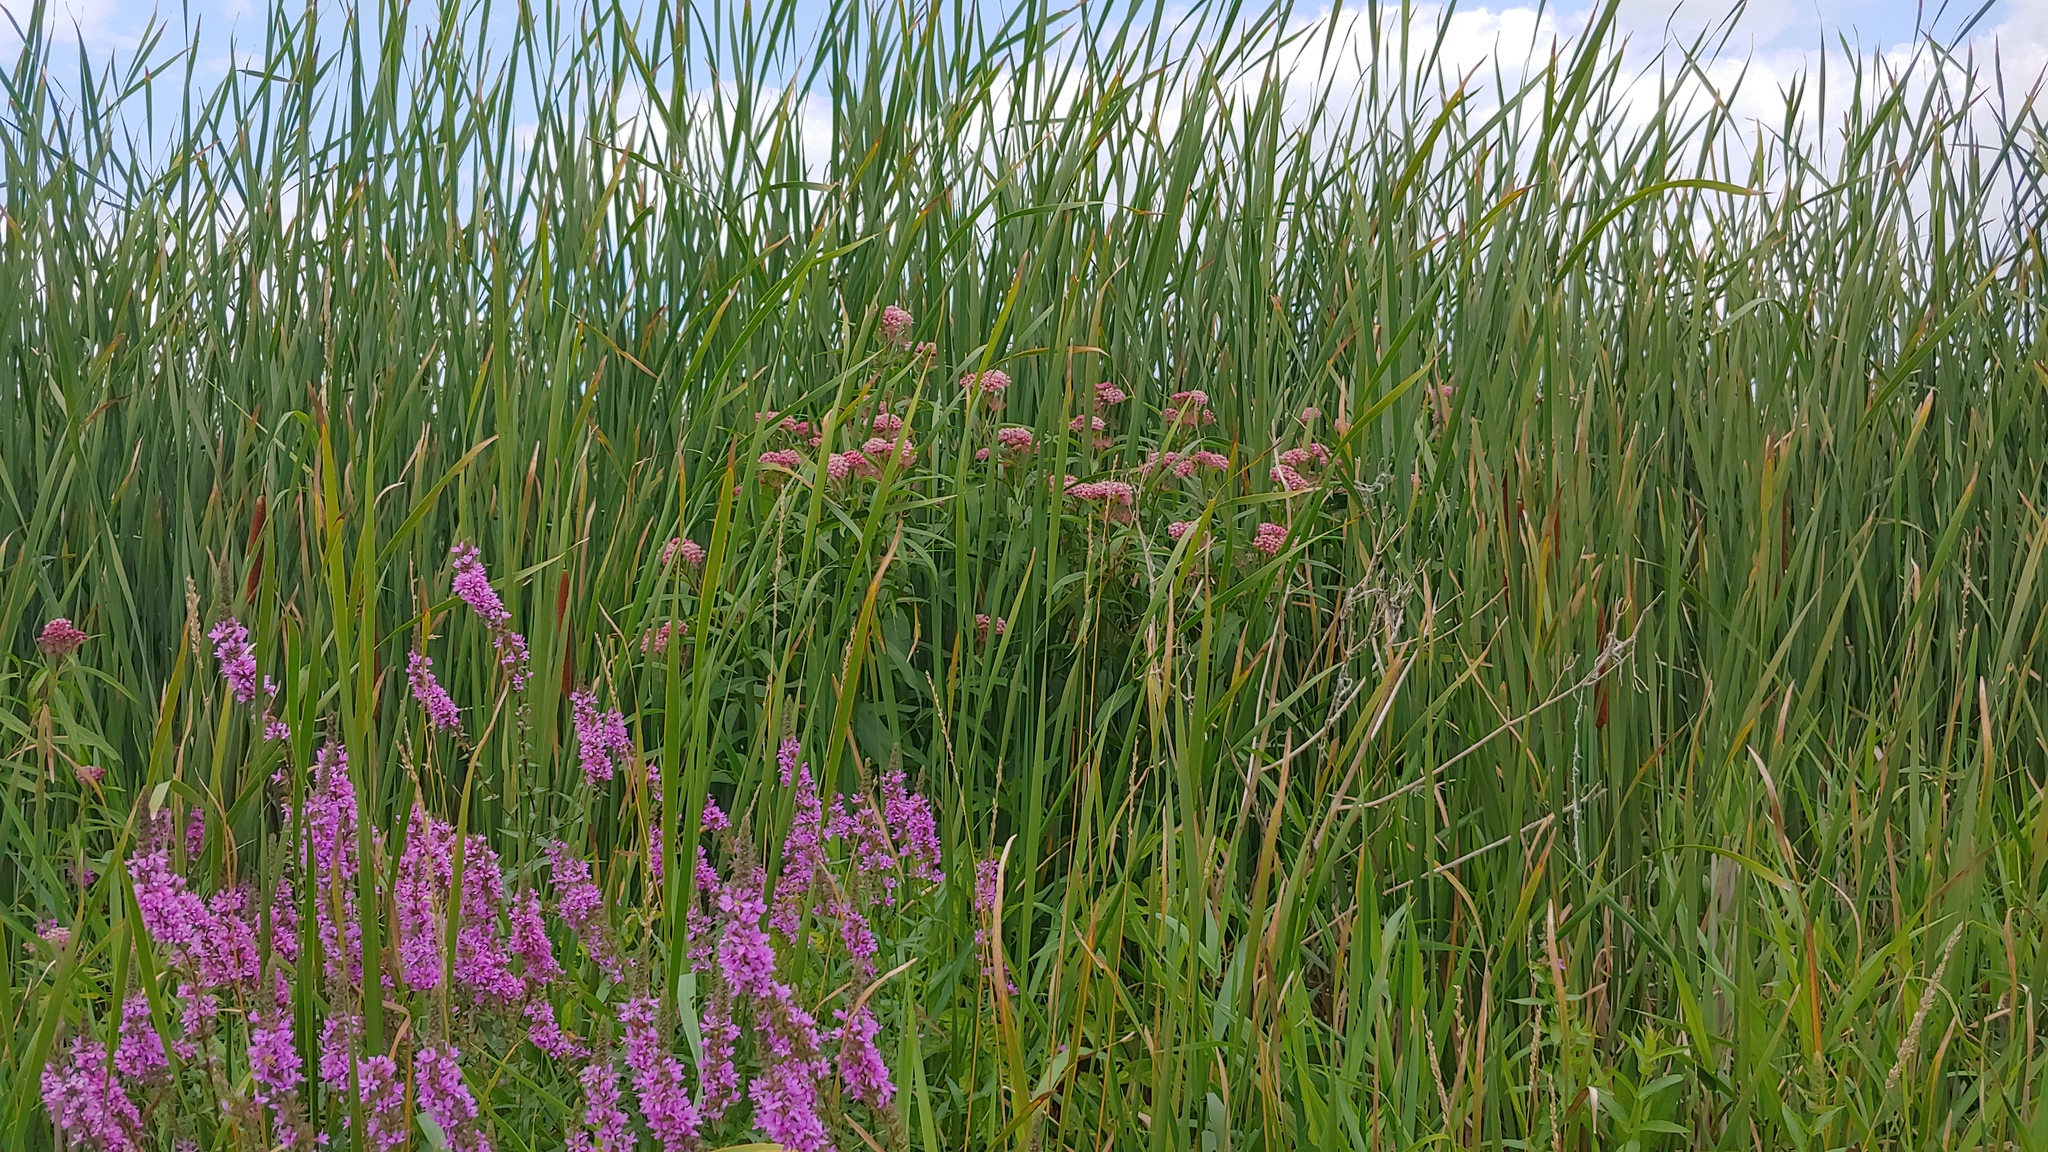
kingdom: Plantae
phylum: Tracheophyta
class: Magnoliopsida
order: Gentianales
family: Apocynaceae
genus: Asclepias
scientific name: Asclepias incarnata
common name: Swamp milkweed
